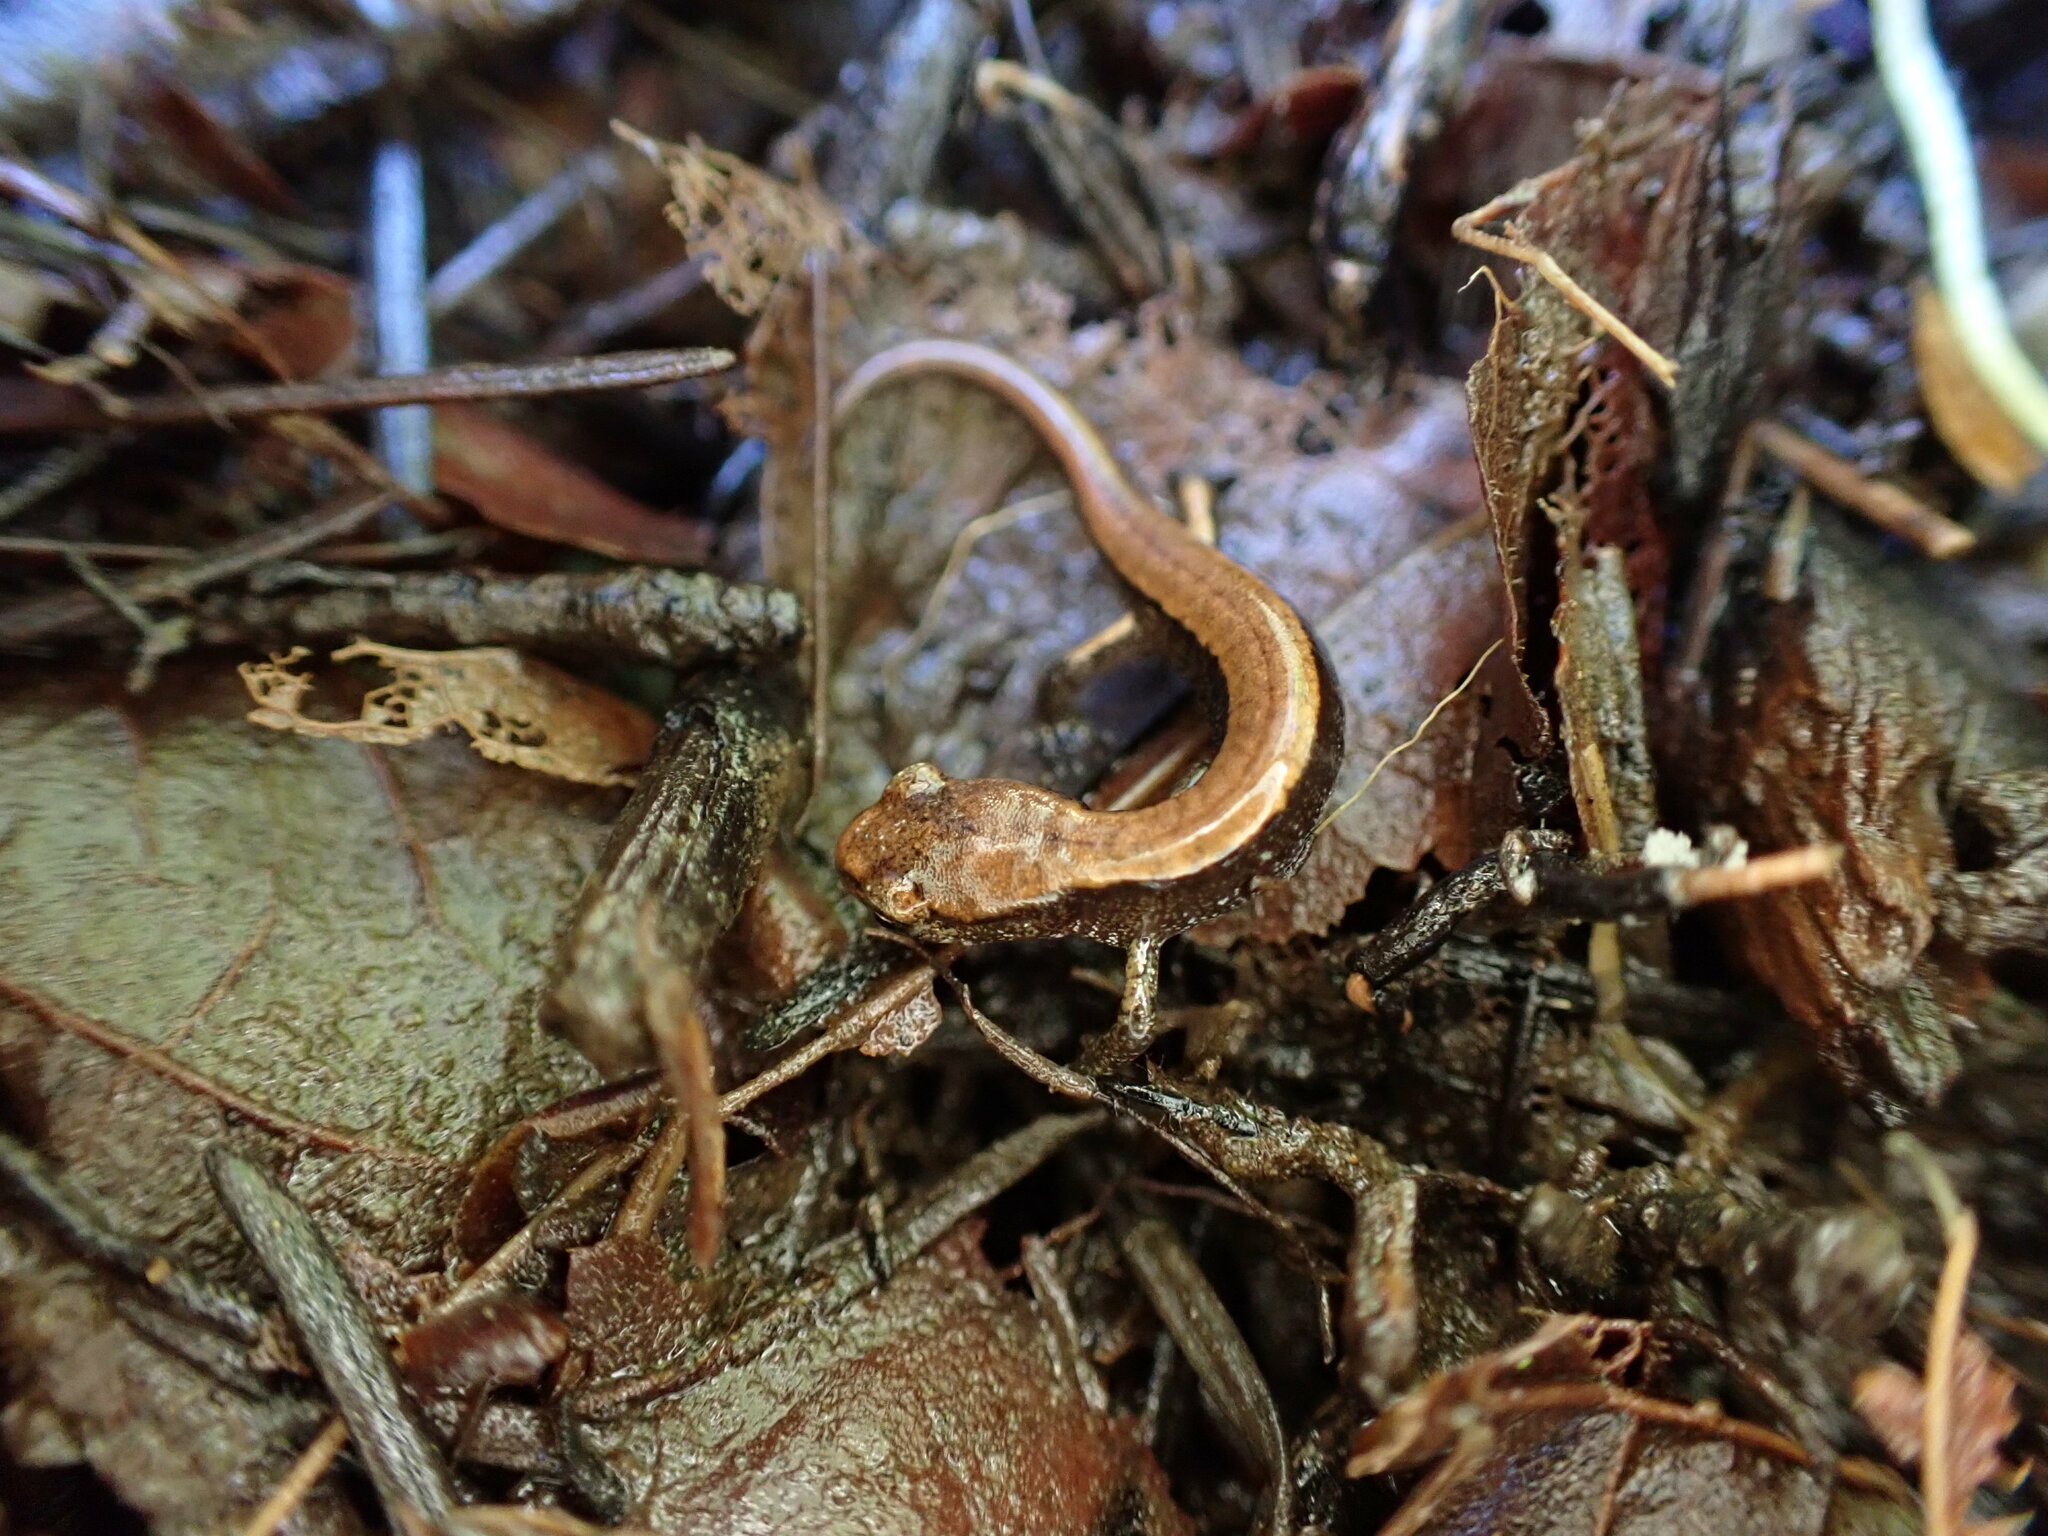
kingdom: Animalia
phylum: Chordata
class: Amphibia
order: Caudata
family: Plethodontidae
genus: Plethodon
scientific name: Plethodon vehiculum
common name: Western red-backed salamander
